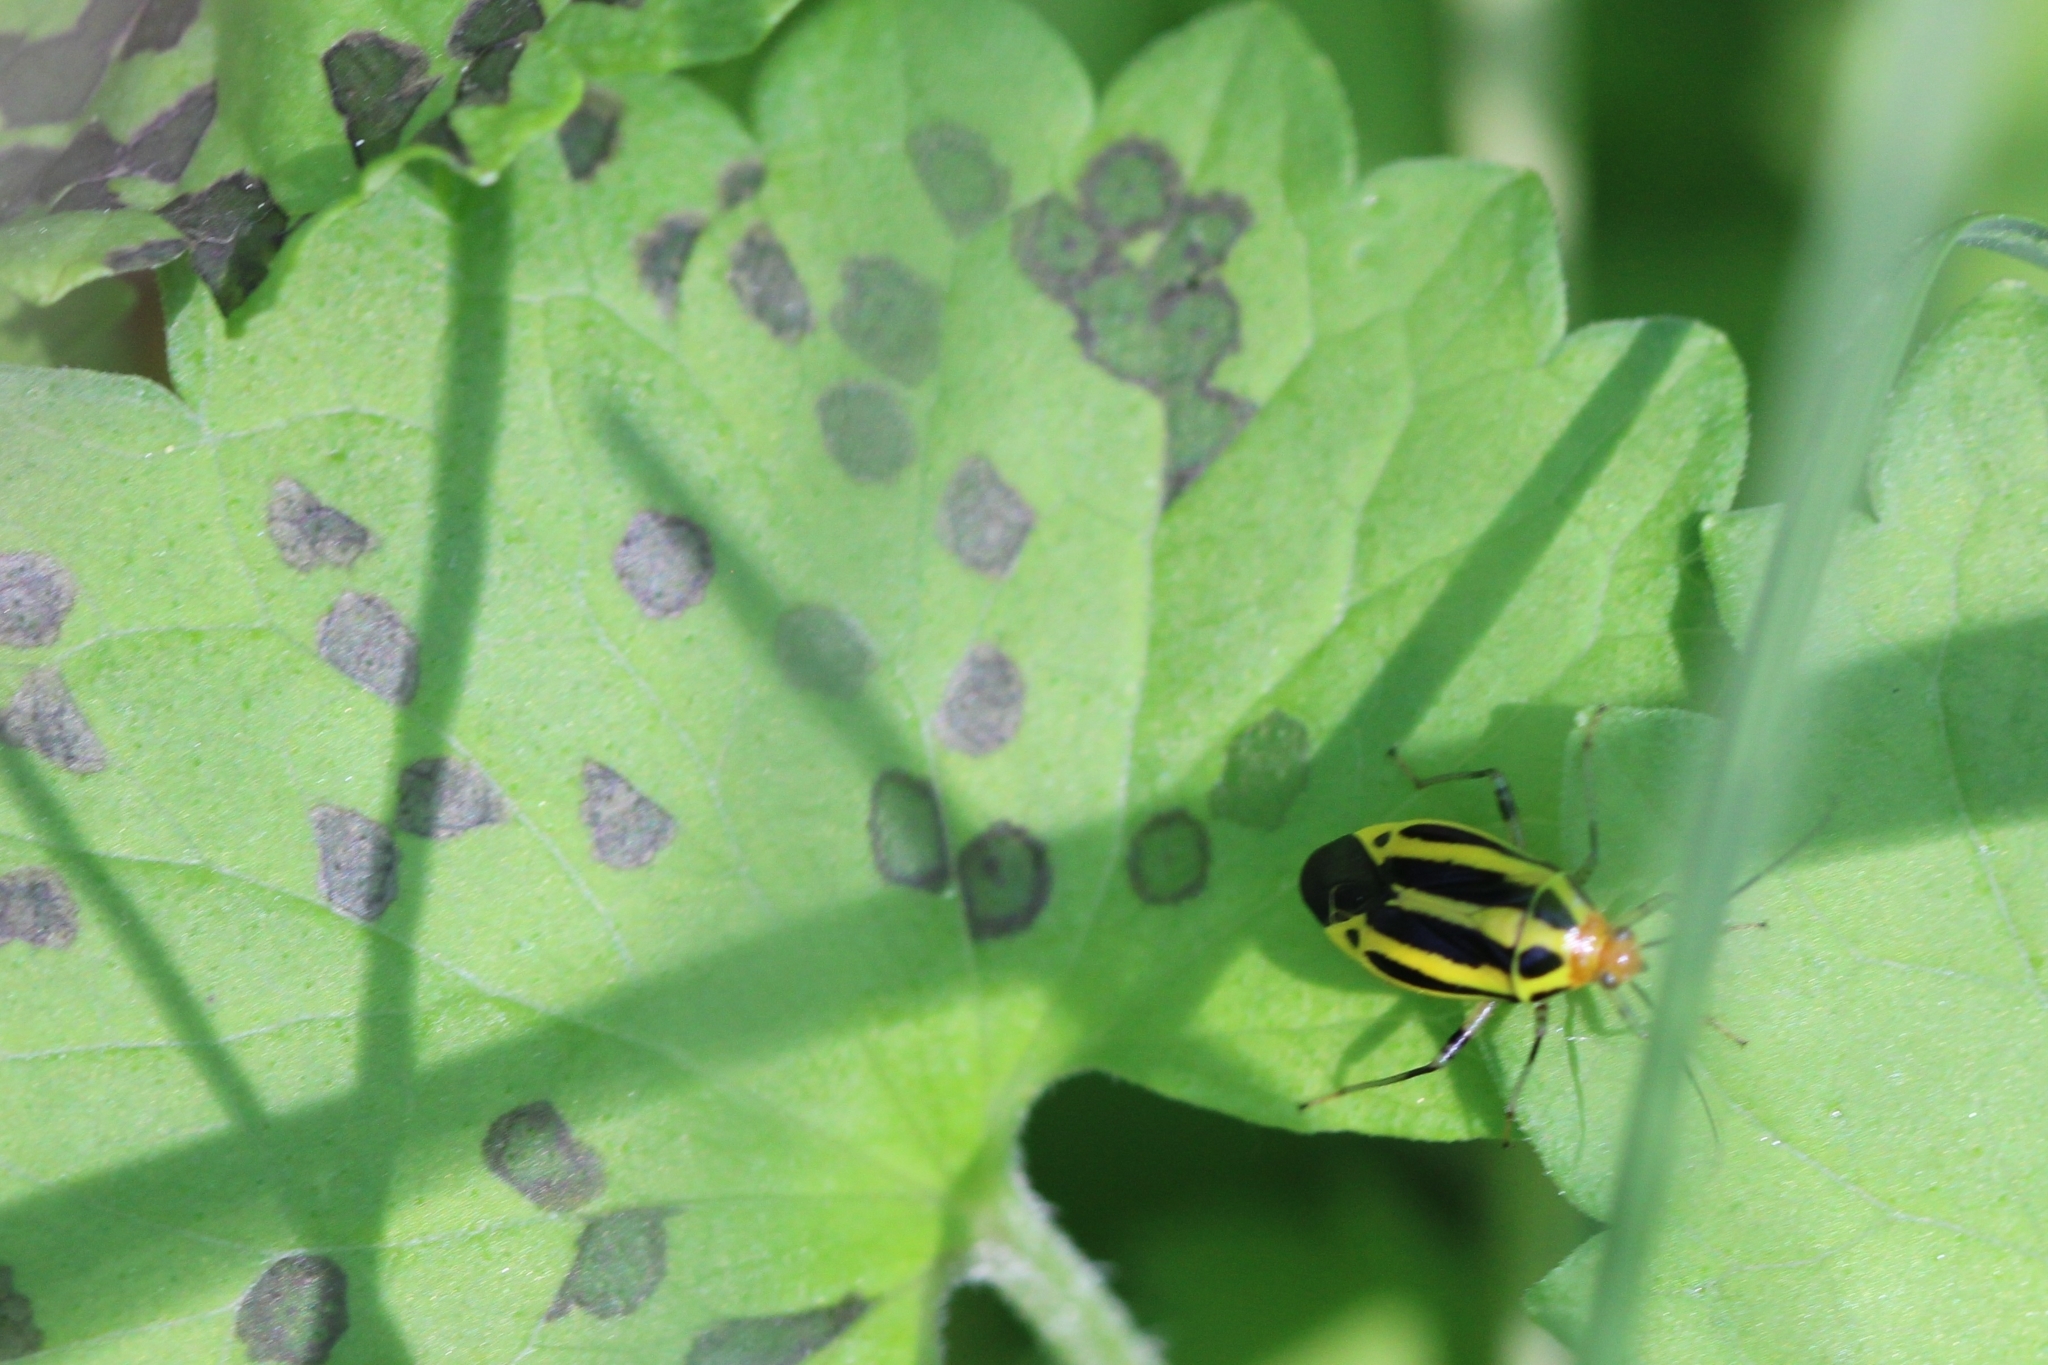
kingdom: Animalia
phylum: Arthropoda
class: Insecta
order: Hemiptera
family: Miridae
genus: Poecilocapsus
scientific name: Poecilocapsus lineatus
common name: Four-lined plant bug
